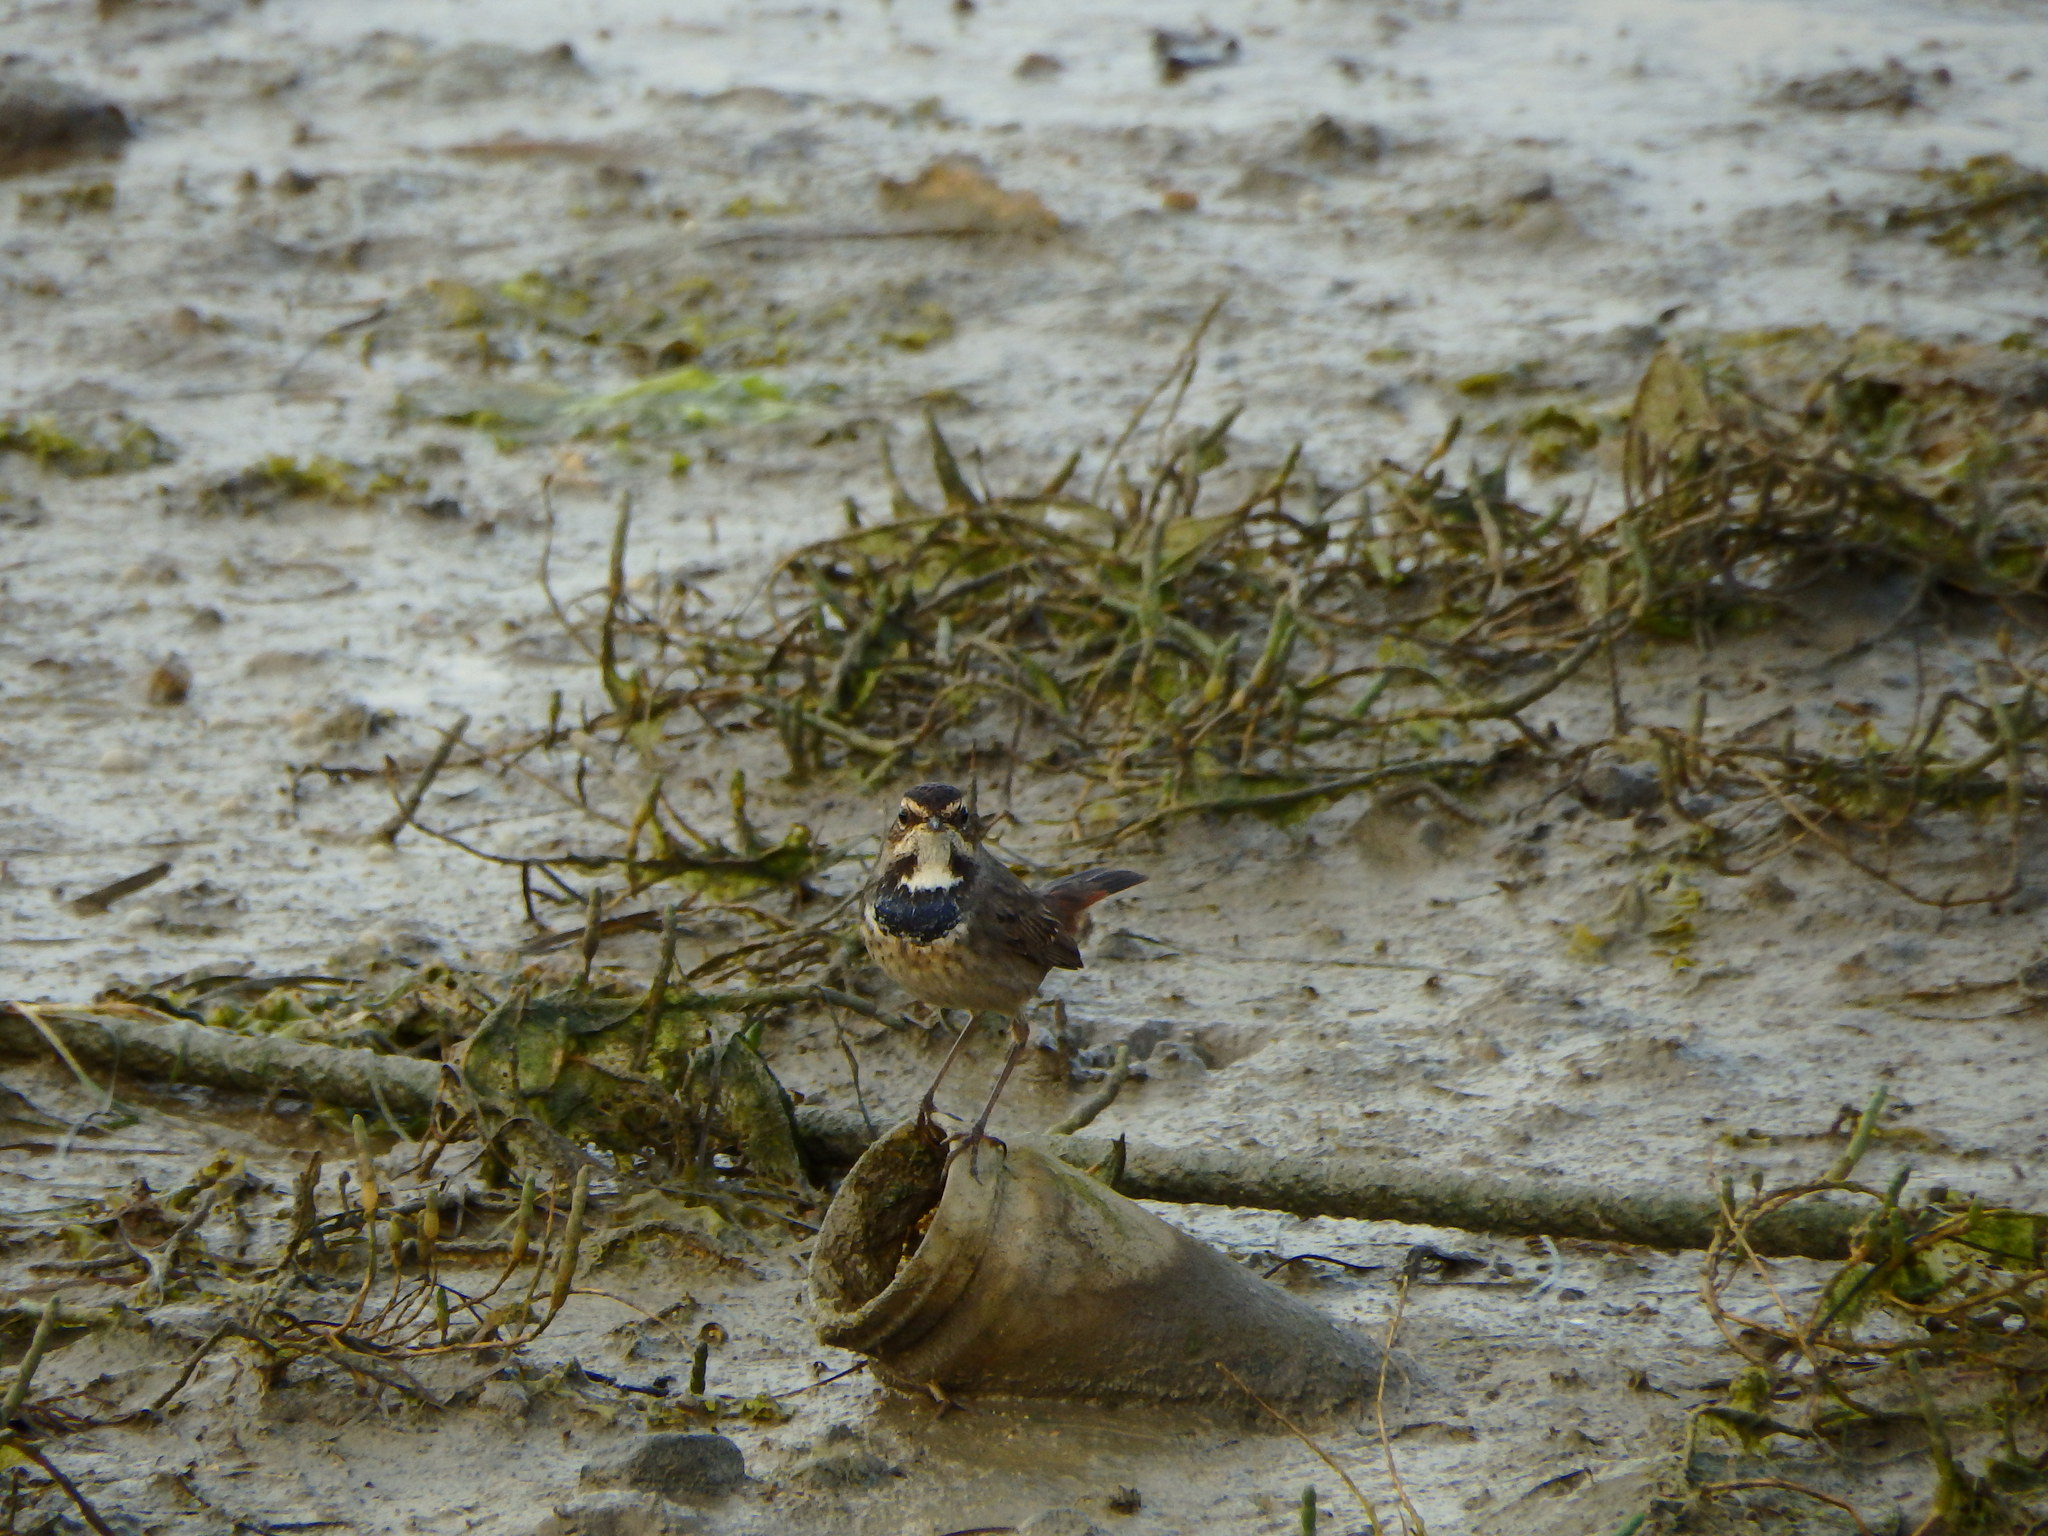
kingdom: Animalia
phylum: Chordata
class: Aves
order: Passeriformes
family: Muscicapidae
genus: Luscinia
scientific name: Luscinia svecica
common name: Bluethroat
